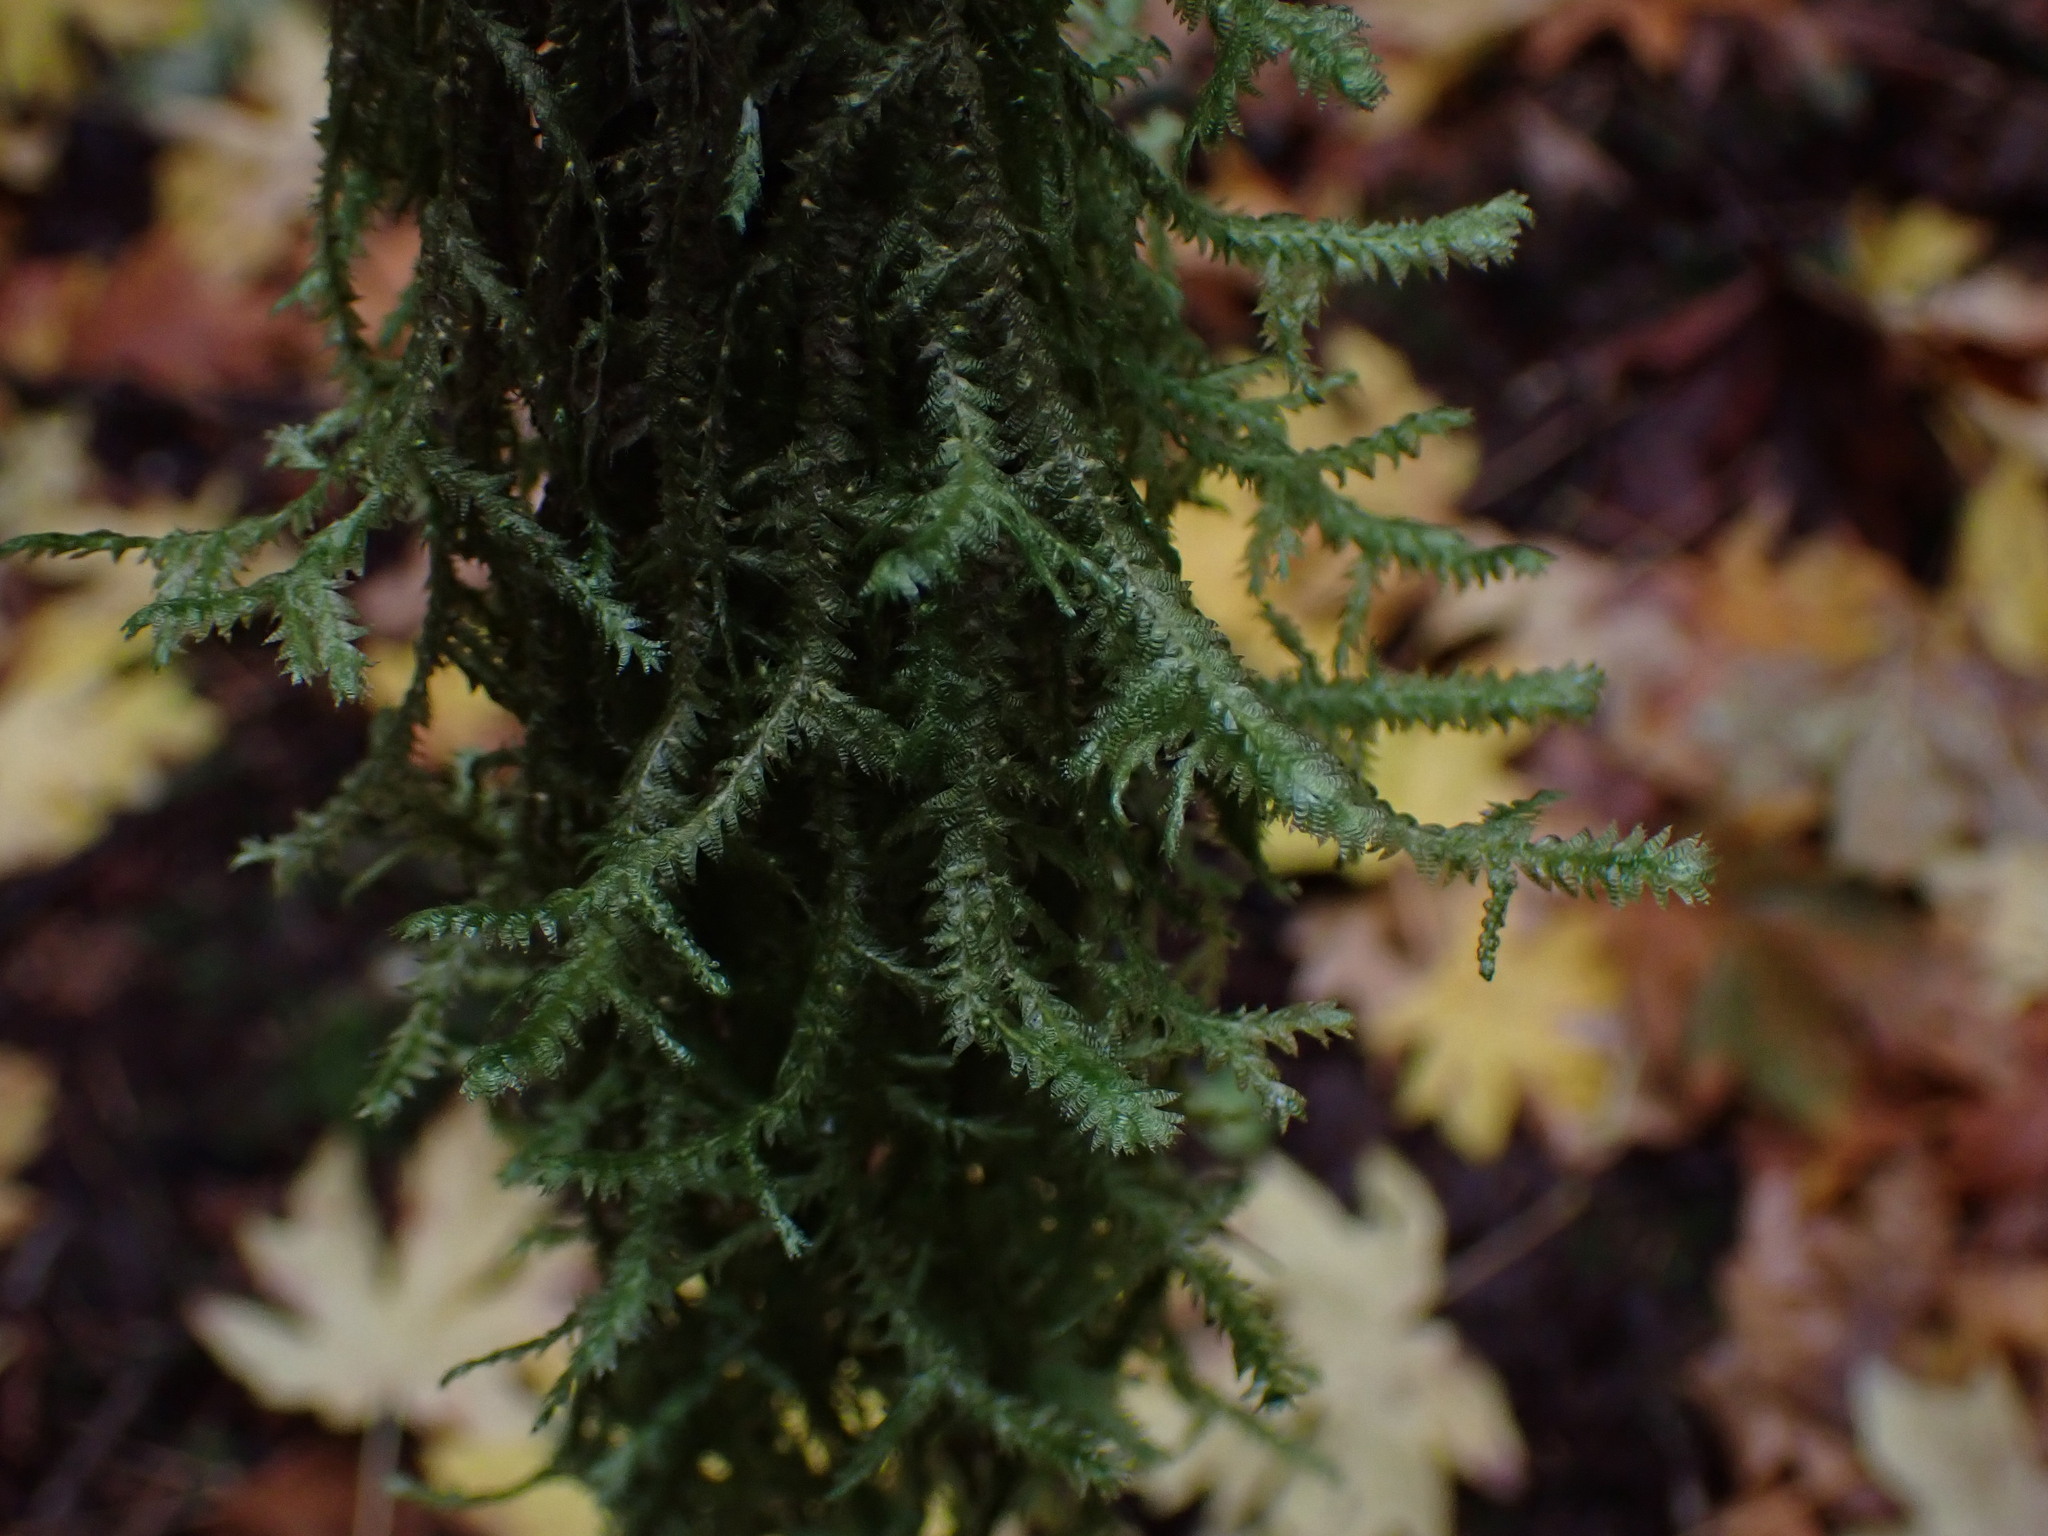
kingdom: Plantae
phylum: Bryophyta
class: Bryopsida
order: Hypnales
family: Neckeraceae
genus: Neckera
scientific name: Neckera douglasii
